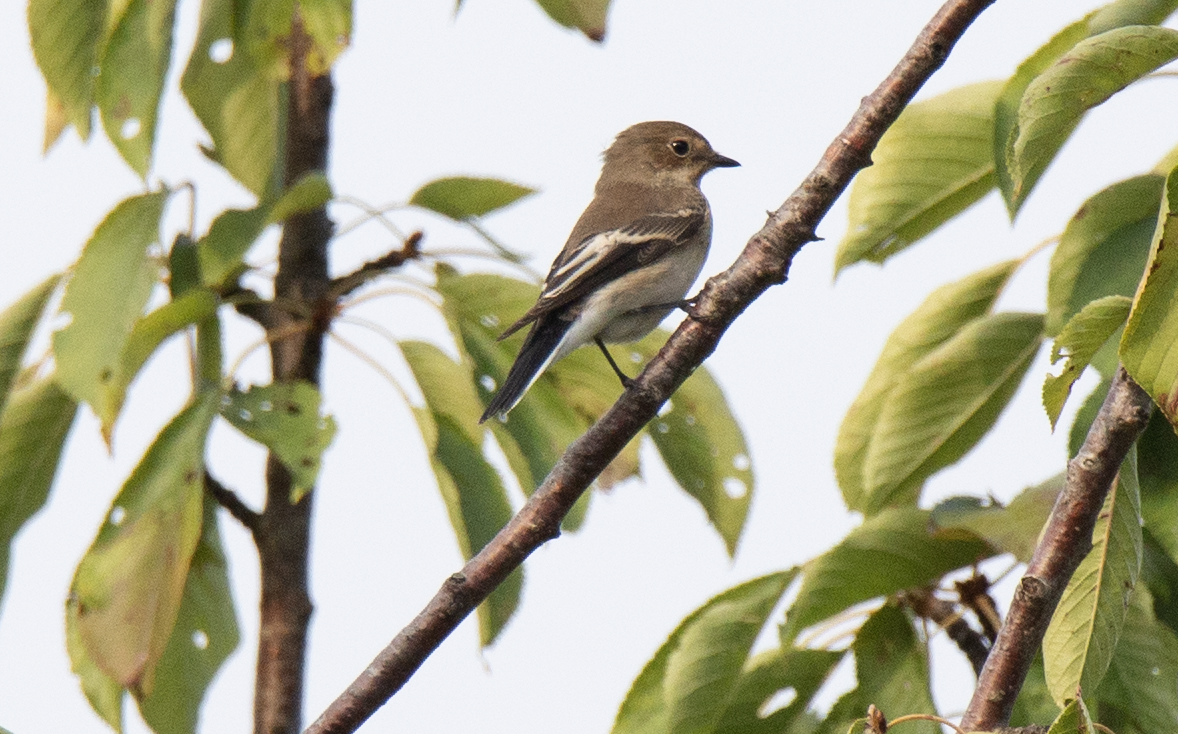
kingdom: Animalia
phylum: Chordata
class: Aves
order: Passeriformes
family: Muscicapidae
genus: Ficedula
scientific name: Ficedula hypoleuca
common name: European pied flycatcher
